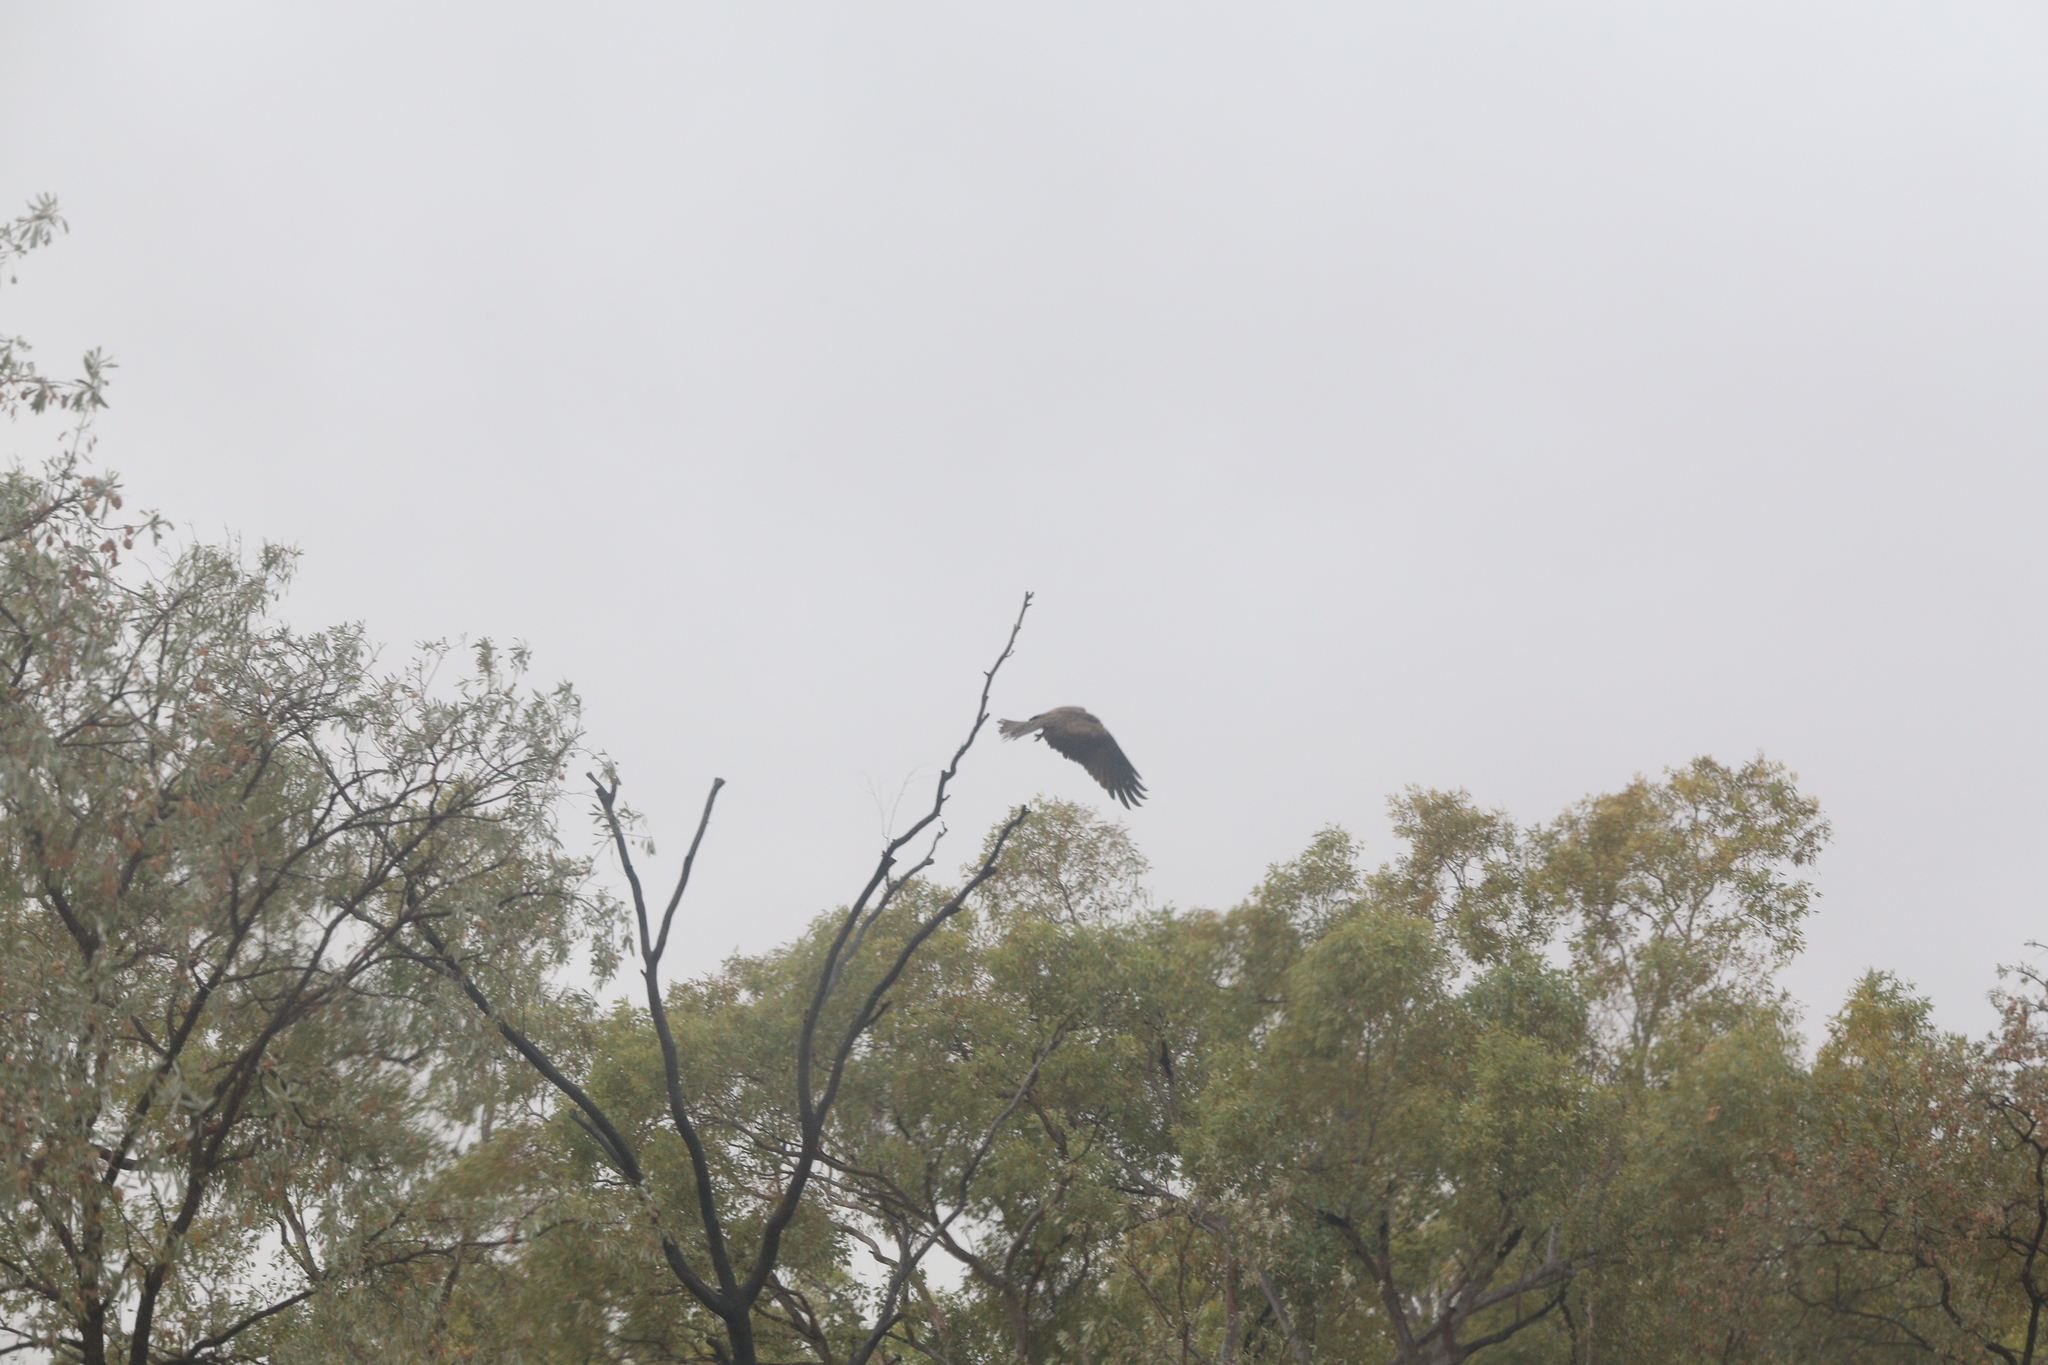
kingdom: Animalia
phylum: Chordata
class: Aves
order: Accipitriformes
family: Accipitridae
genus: Milvus
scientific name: Milvus migrans
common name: Black kite
